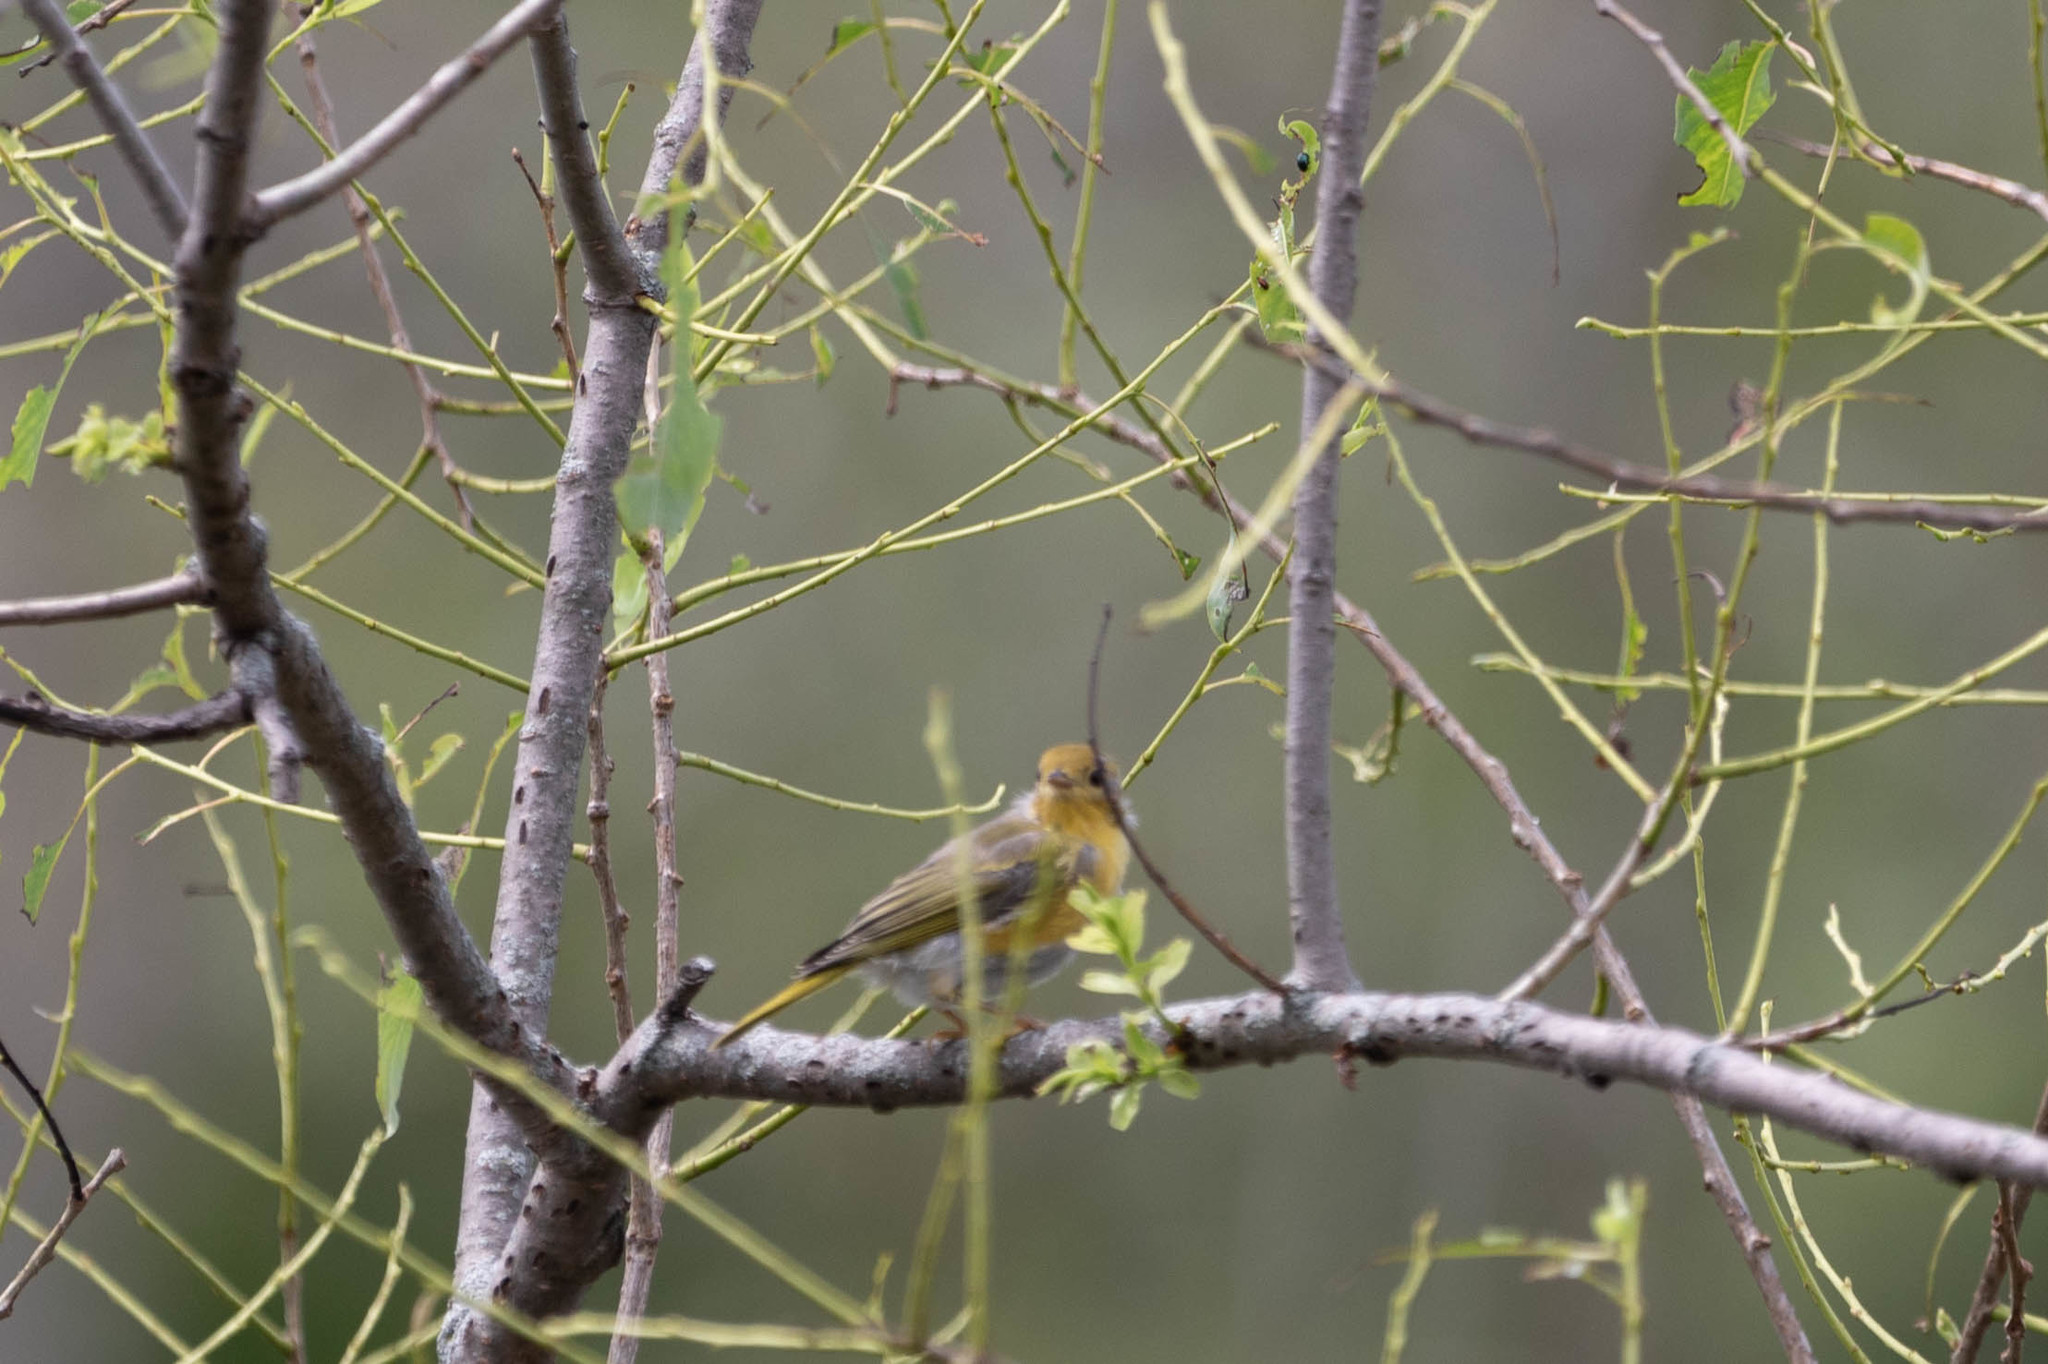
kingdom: Animalia
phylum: Chordata
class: Aves
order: Passeriformes
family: Parulidae
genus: Setophaga
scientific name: Setophaga petechia
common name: Yellow warbler
